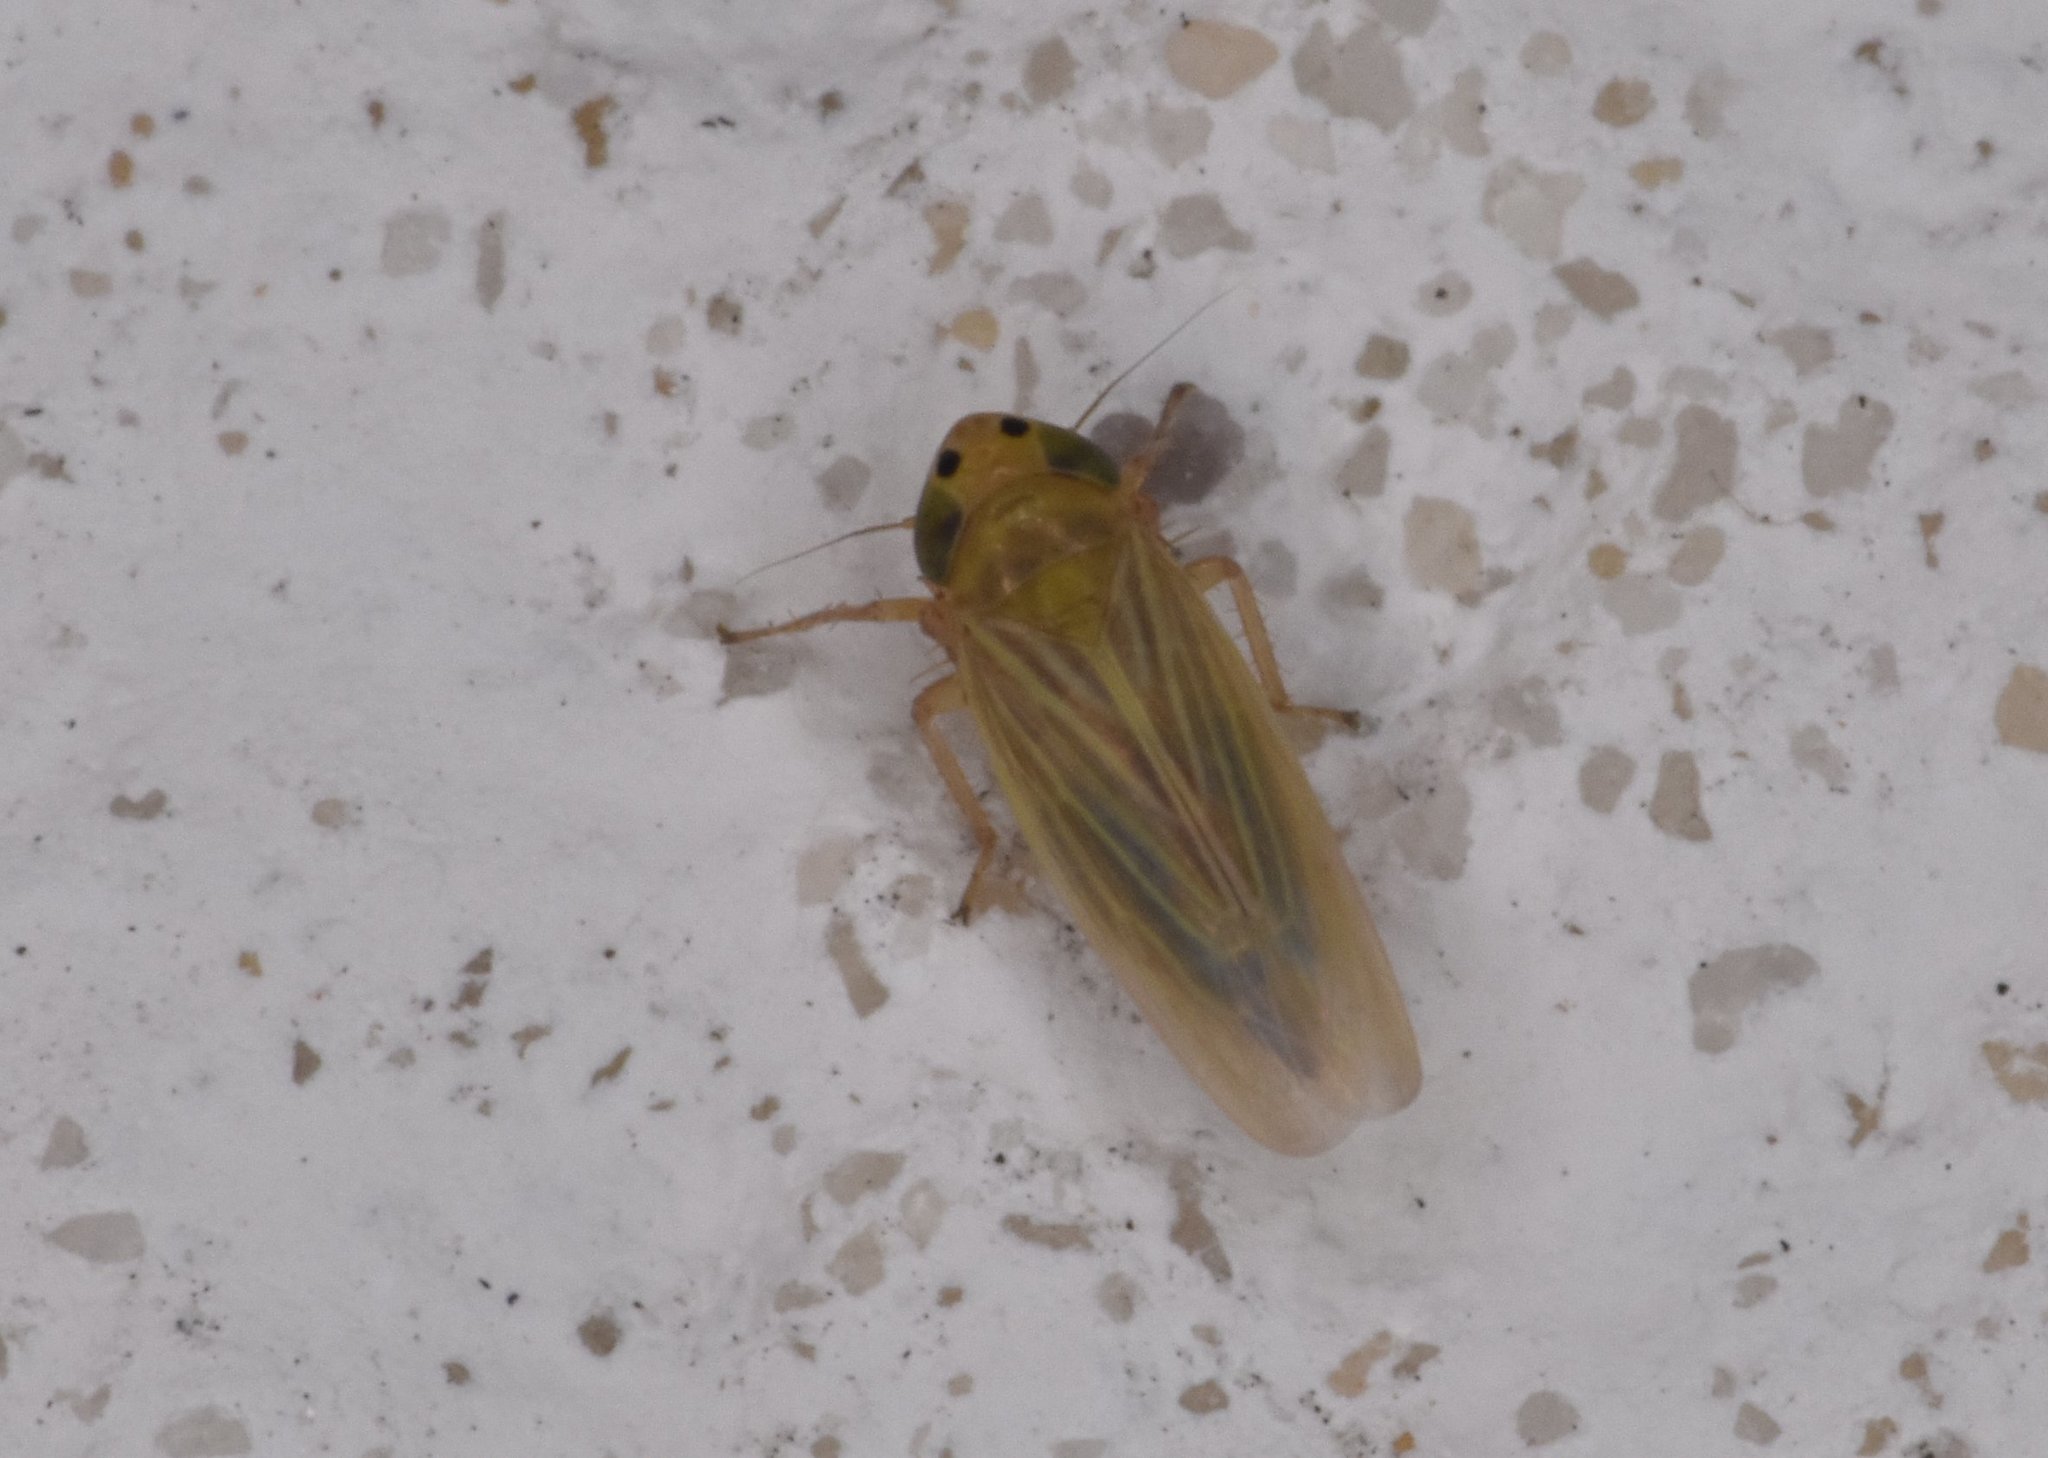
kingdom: Animalia
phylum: Arthropoda
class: Insecta
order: Hemiptera
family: Cicadellidae
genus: Graminella
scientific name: Graminella cognita
